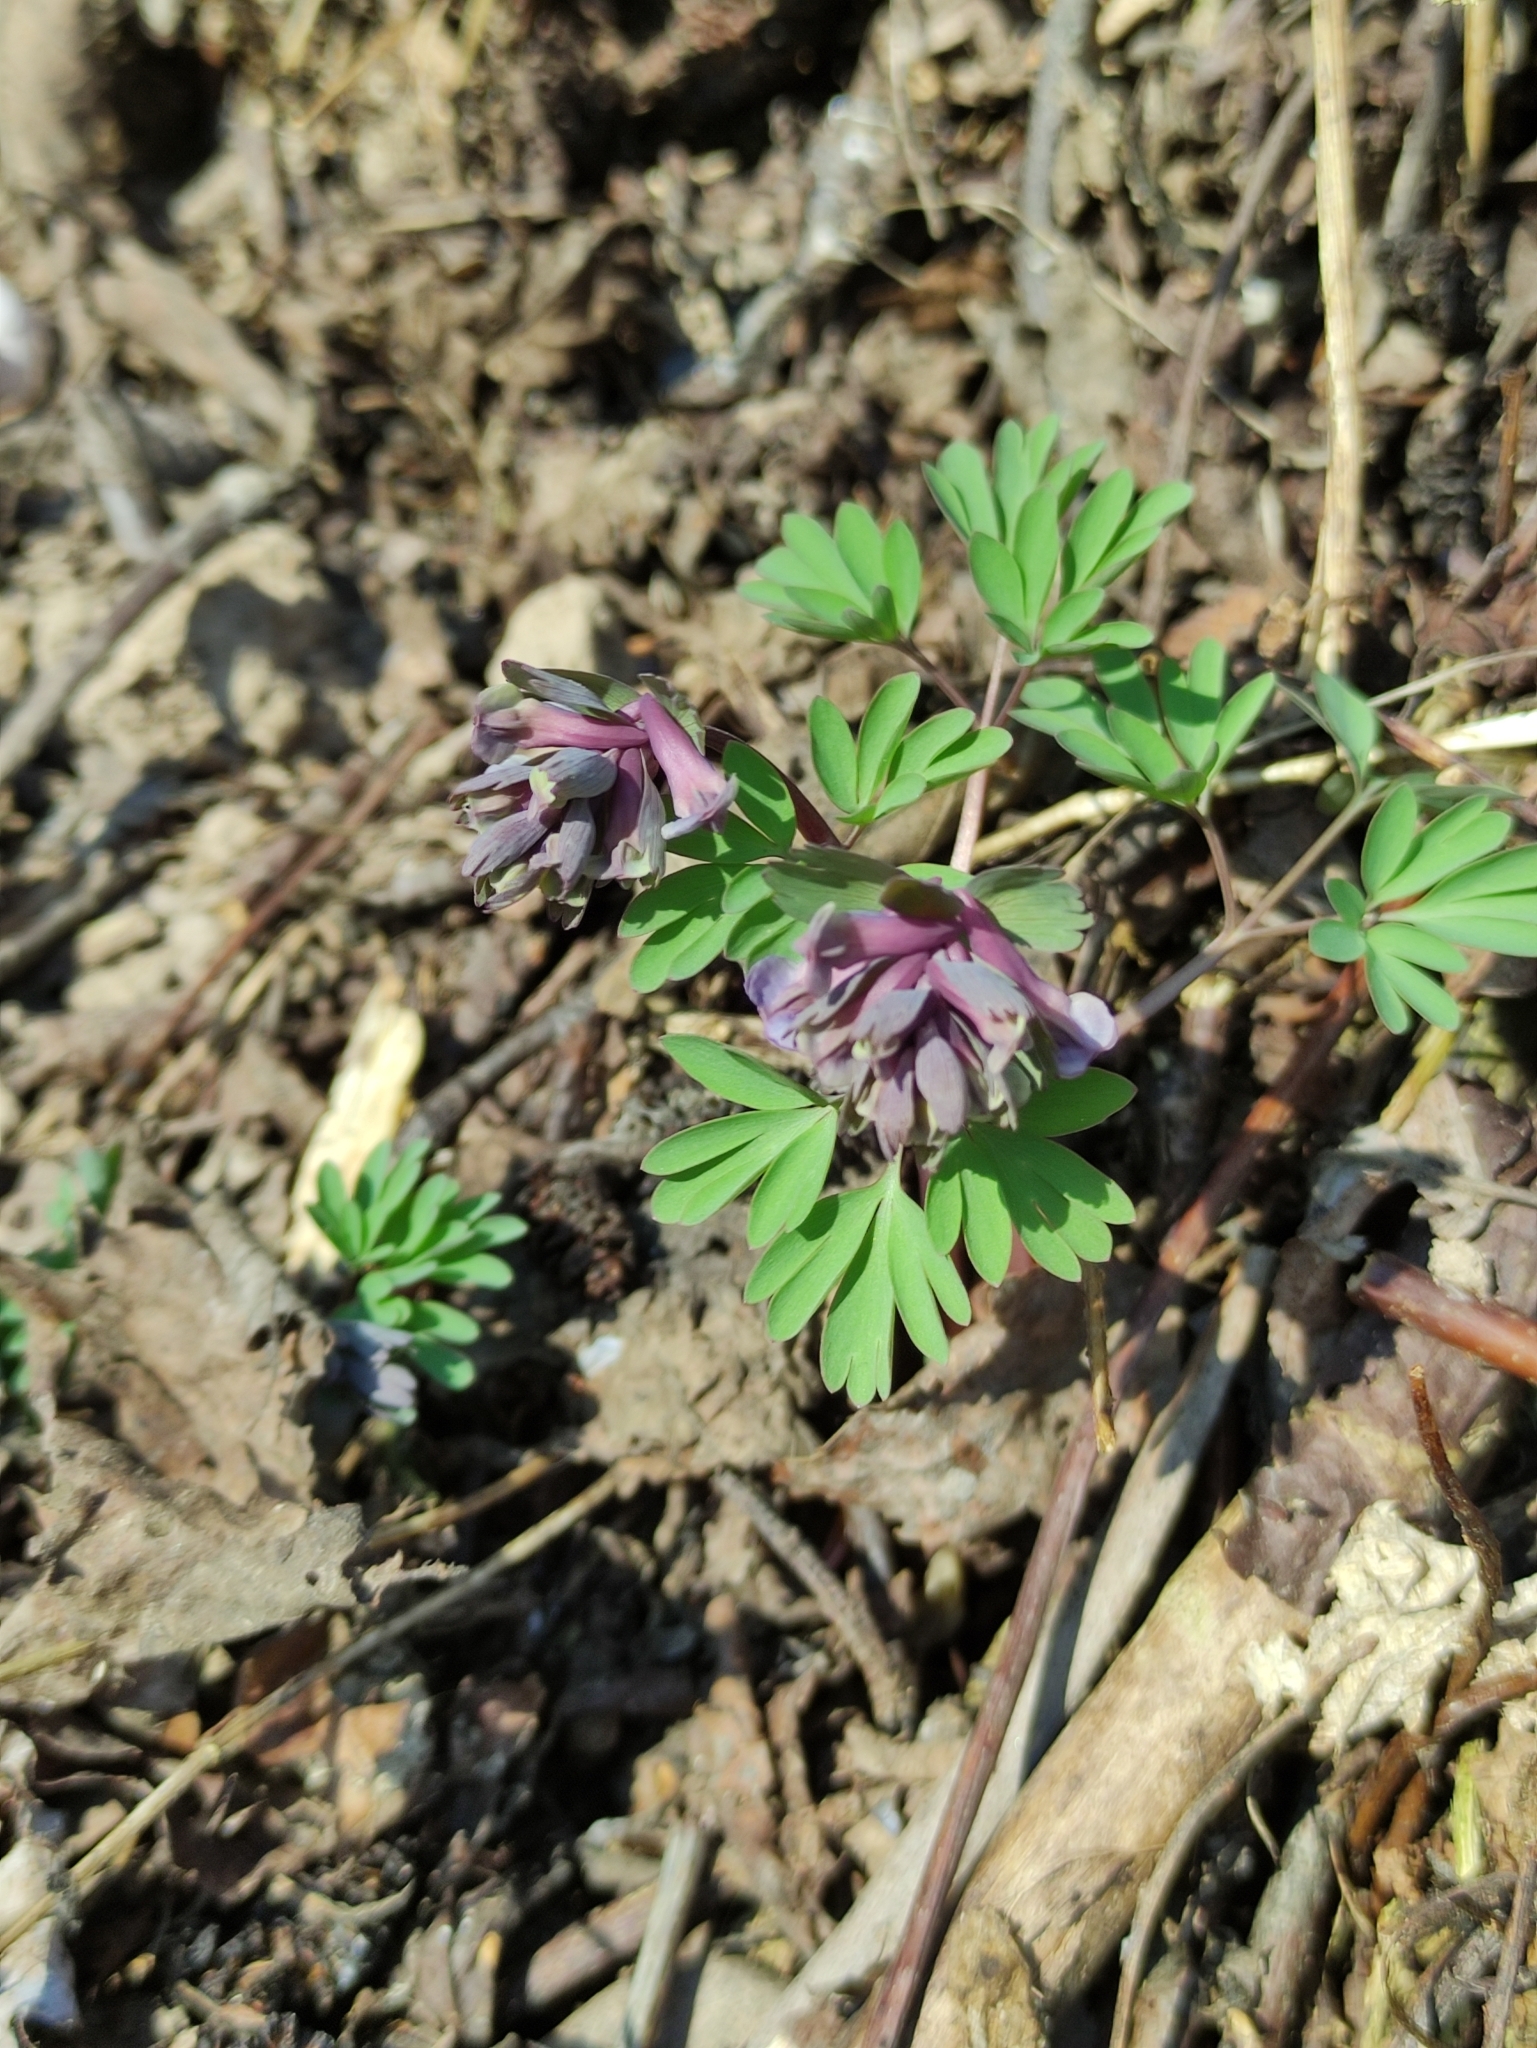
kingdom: Plantae
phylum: Tracheophyta
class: Magnoliopsida
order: Ranunculales
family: Papaveraceae
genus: Corydalis
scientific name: Corydalis solida
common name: Bird-in-a-bush
